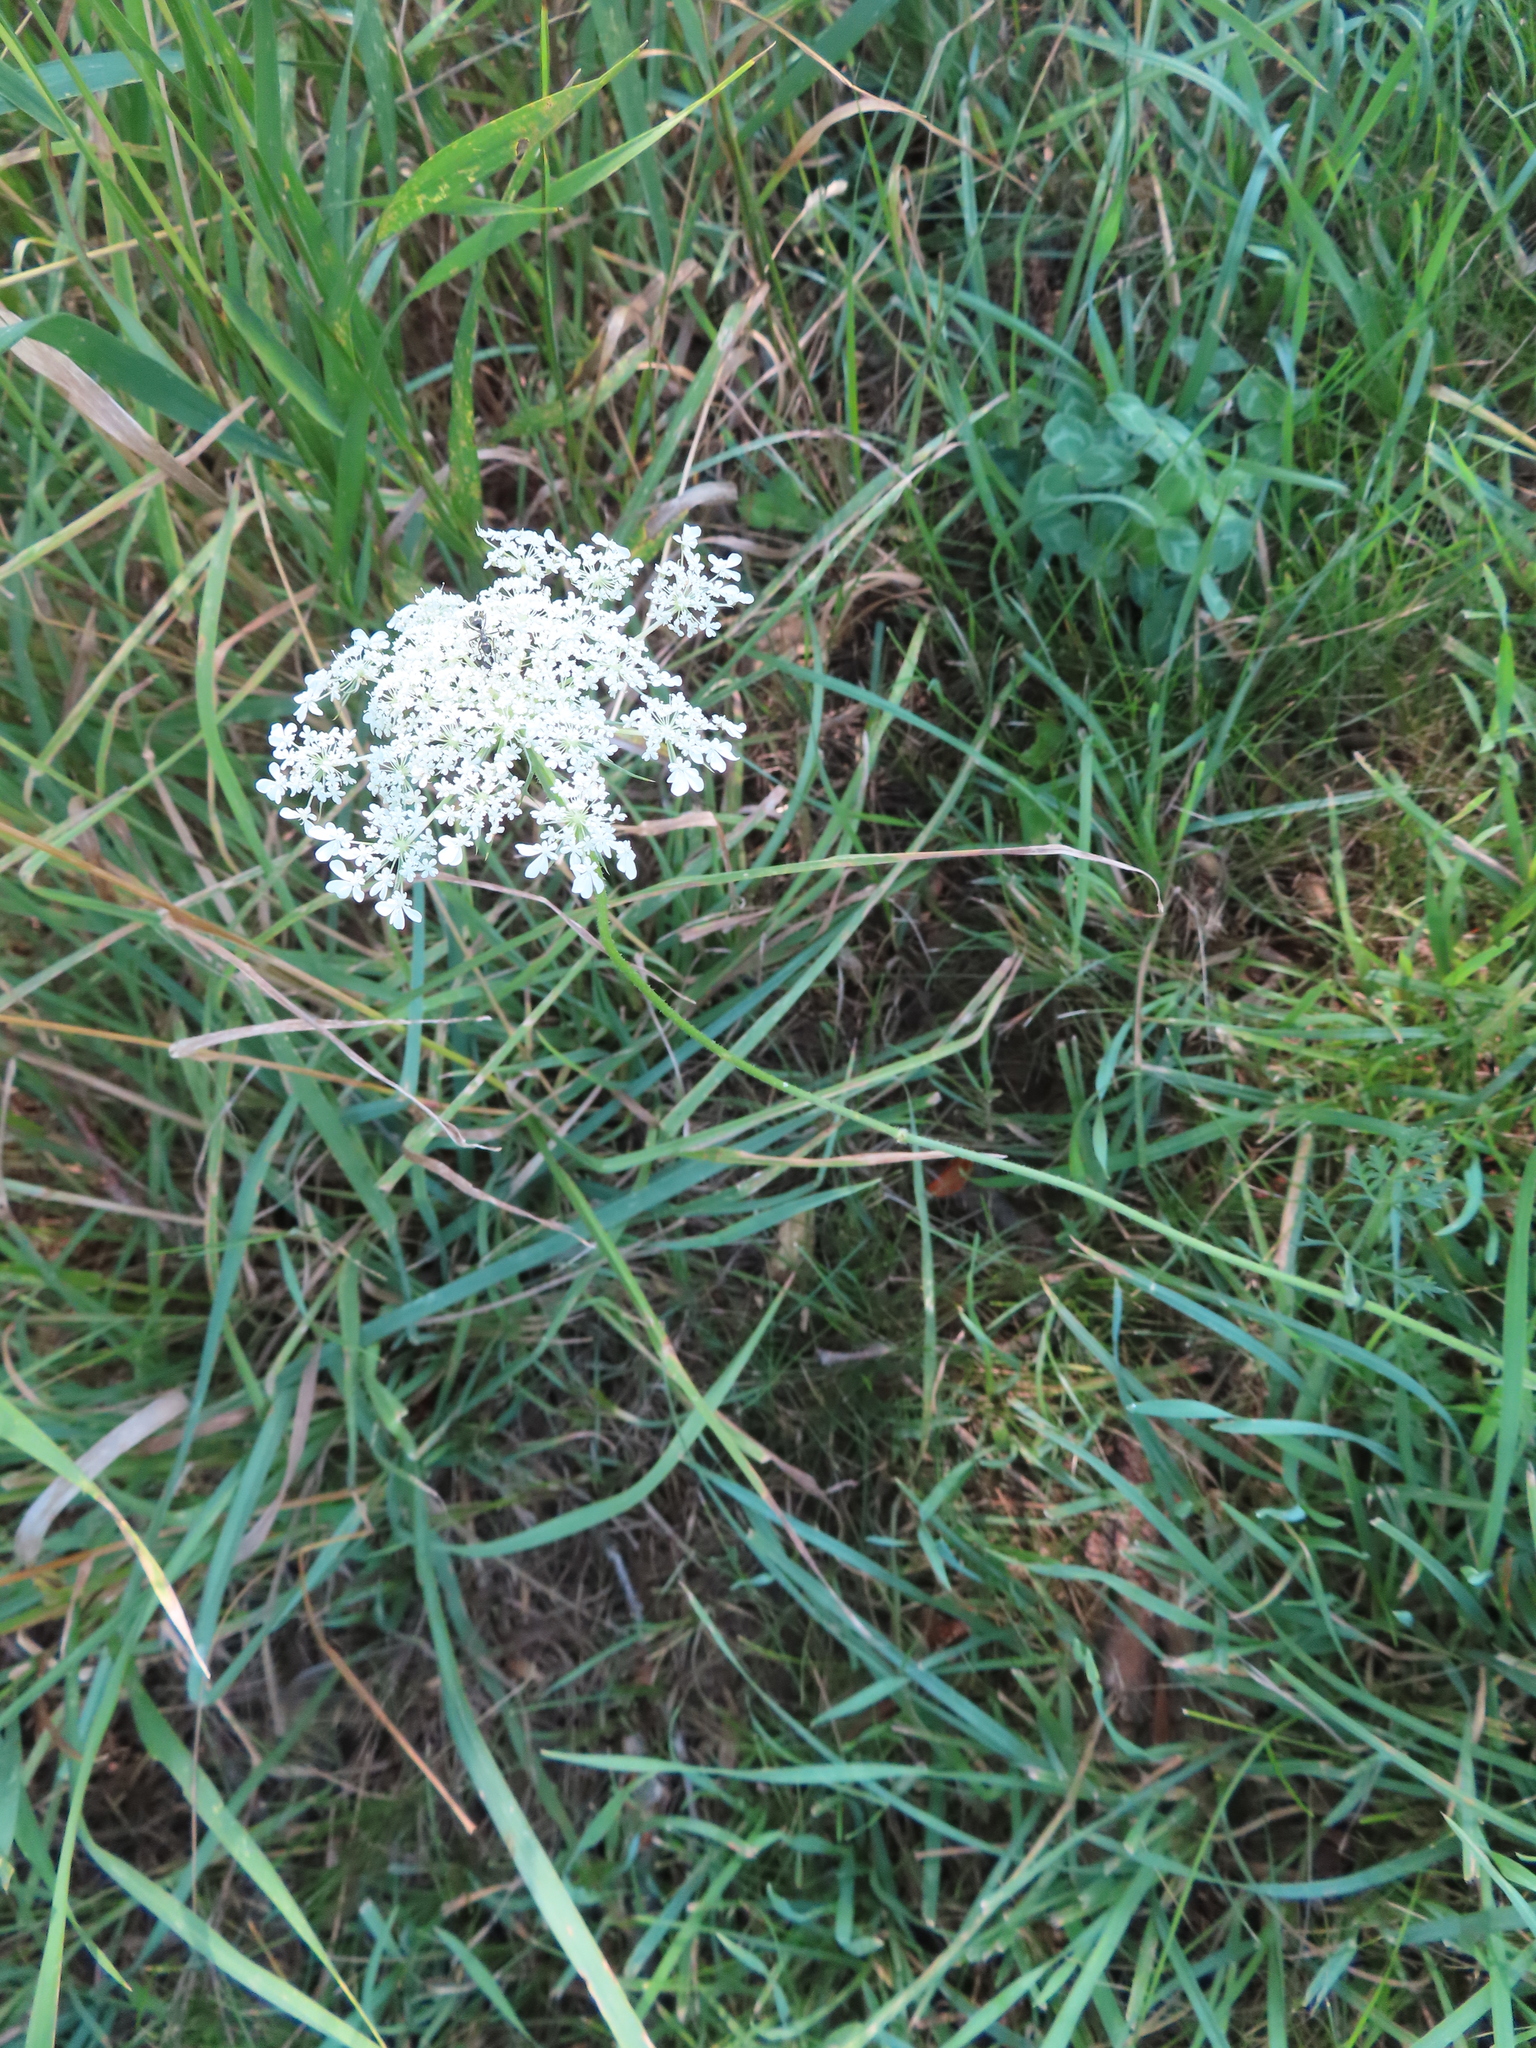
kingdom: Plantae
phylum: Tracheophyta
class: Magnoliopsida
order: Apiales
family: Apiaceae
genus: Daucus
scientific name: Daucus carota
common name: Wild carrot
